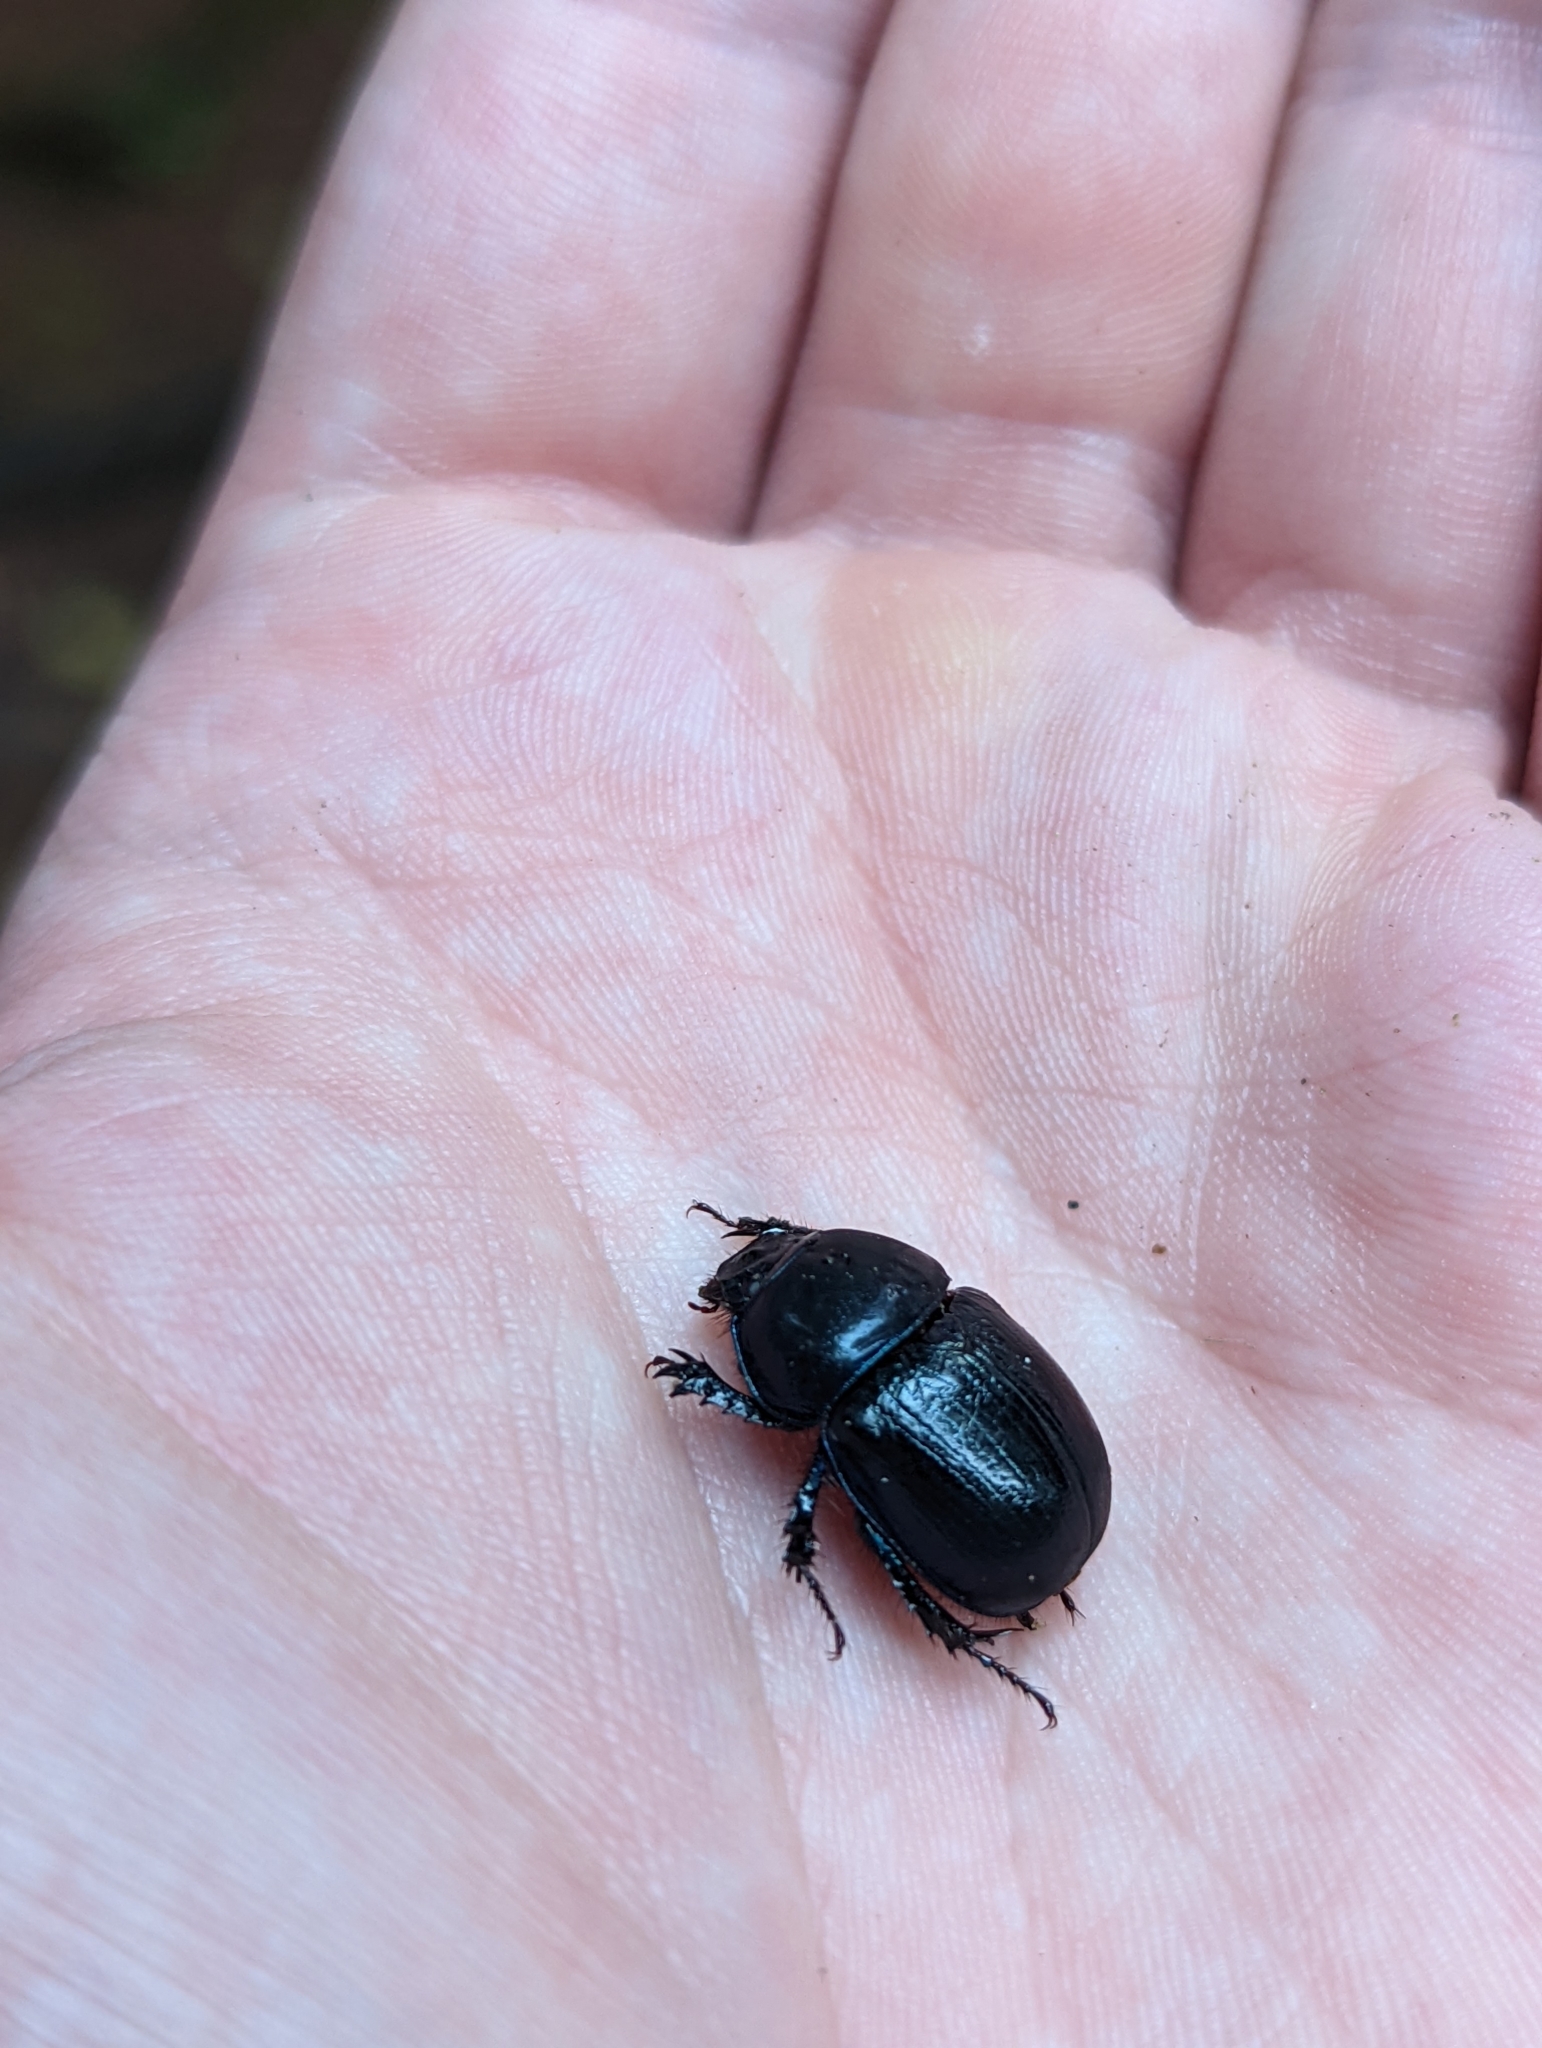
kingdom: Animalia
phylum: Arthropoda
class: Insecta
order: Coleoptera
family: Geotrupidae
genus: Anoplotrupes
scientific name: Anoplotrupes stercorosus
